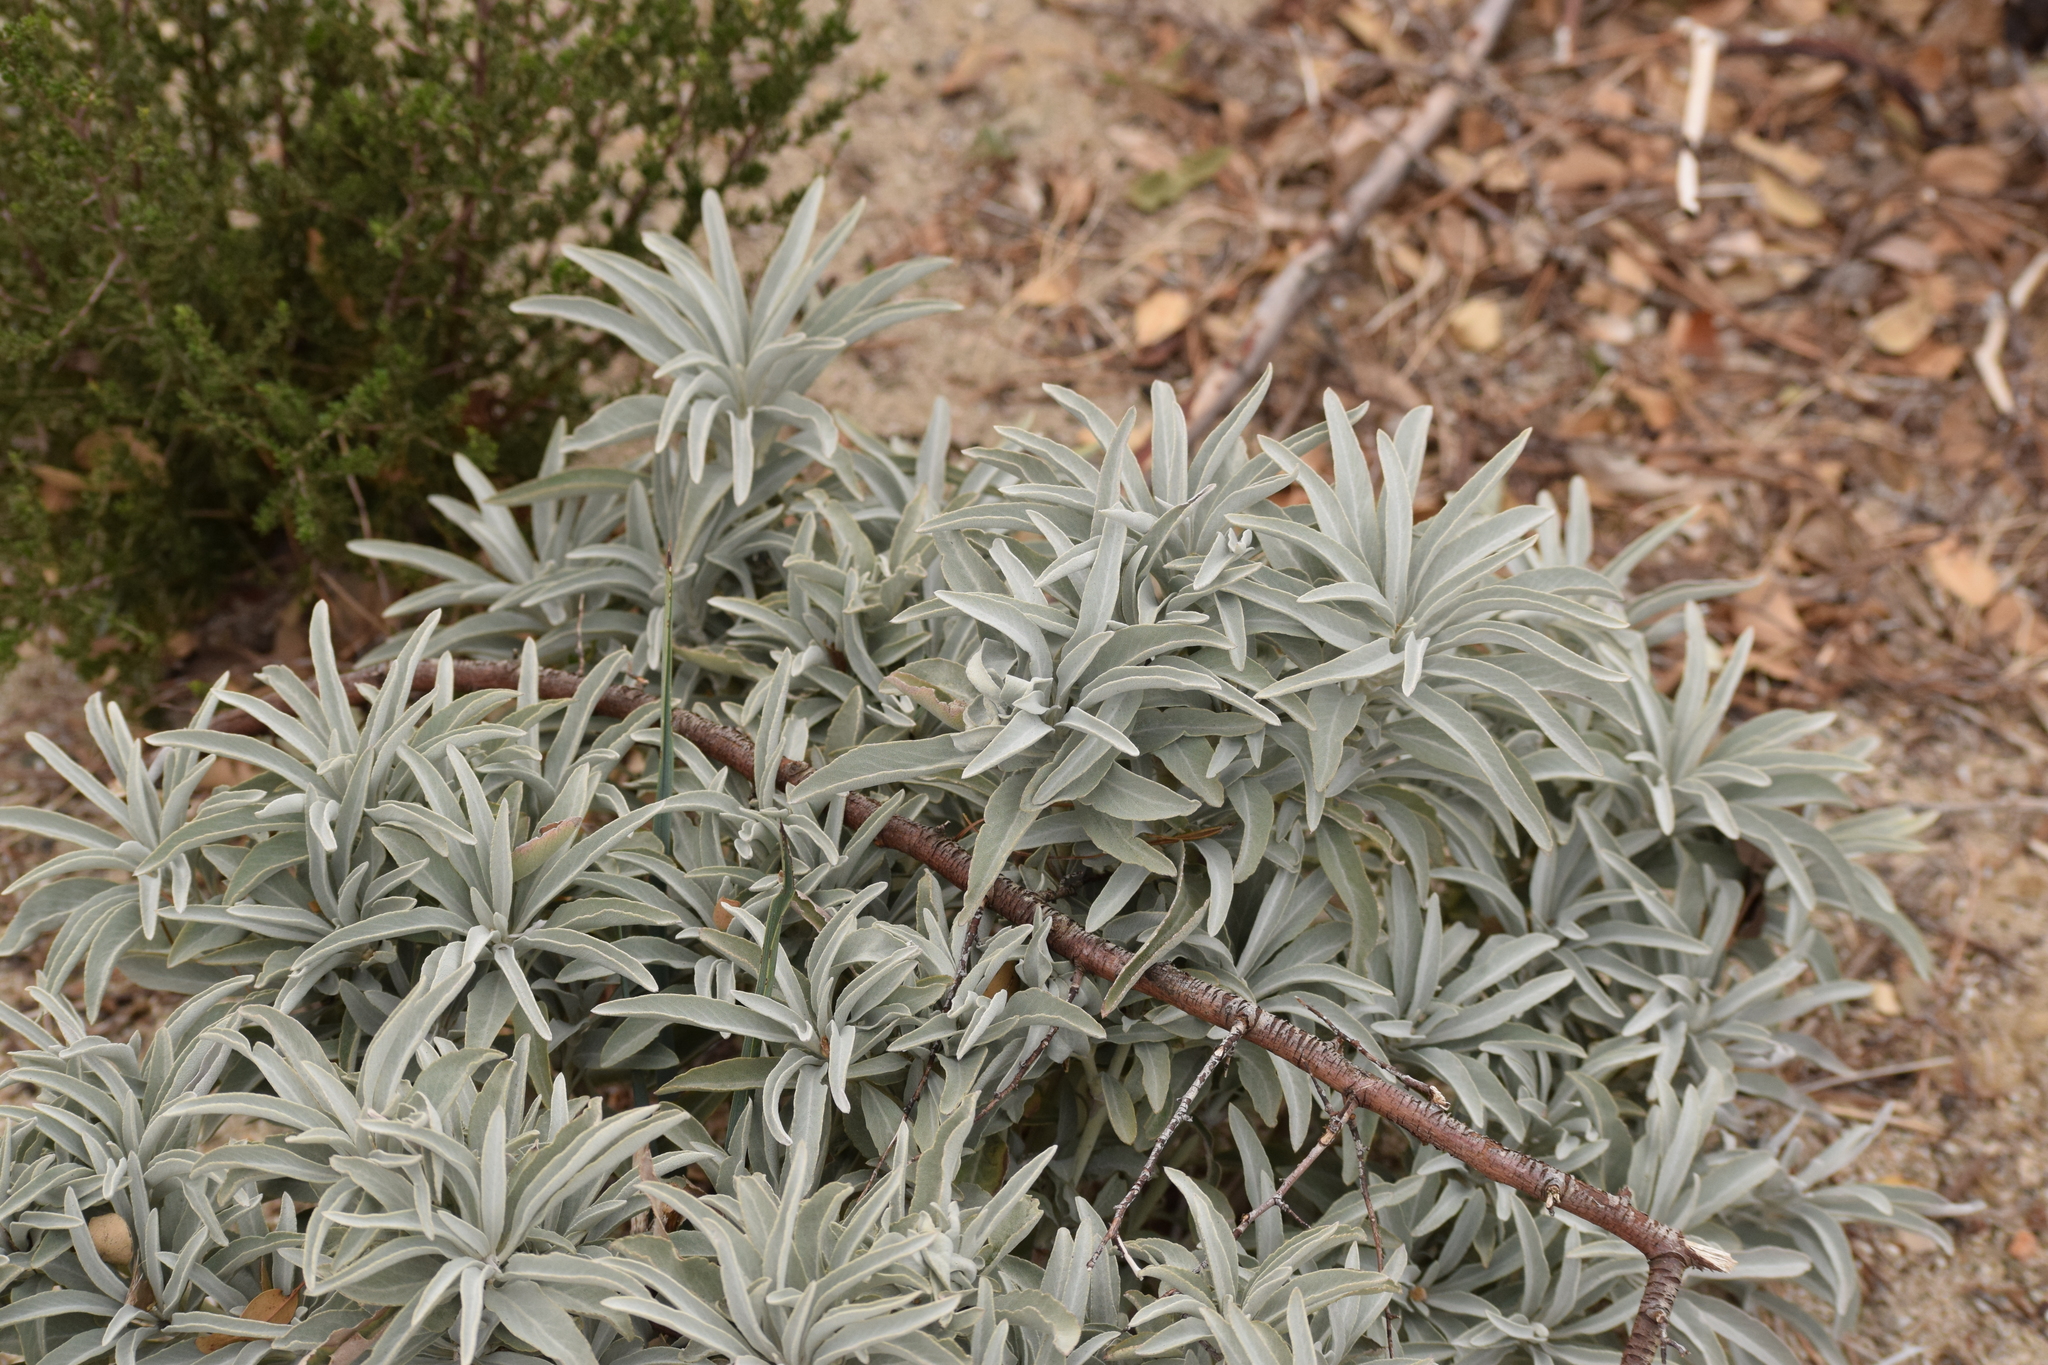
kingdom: Plantae
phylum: Tracheophyta
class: Magnoliopsida
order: Lamiales
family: Lamiaceae
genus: Salvia
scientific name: Salvia apiana
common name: White sage
